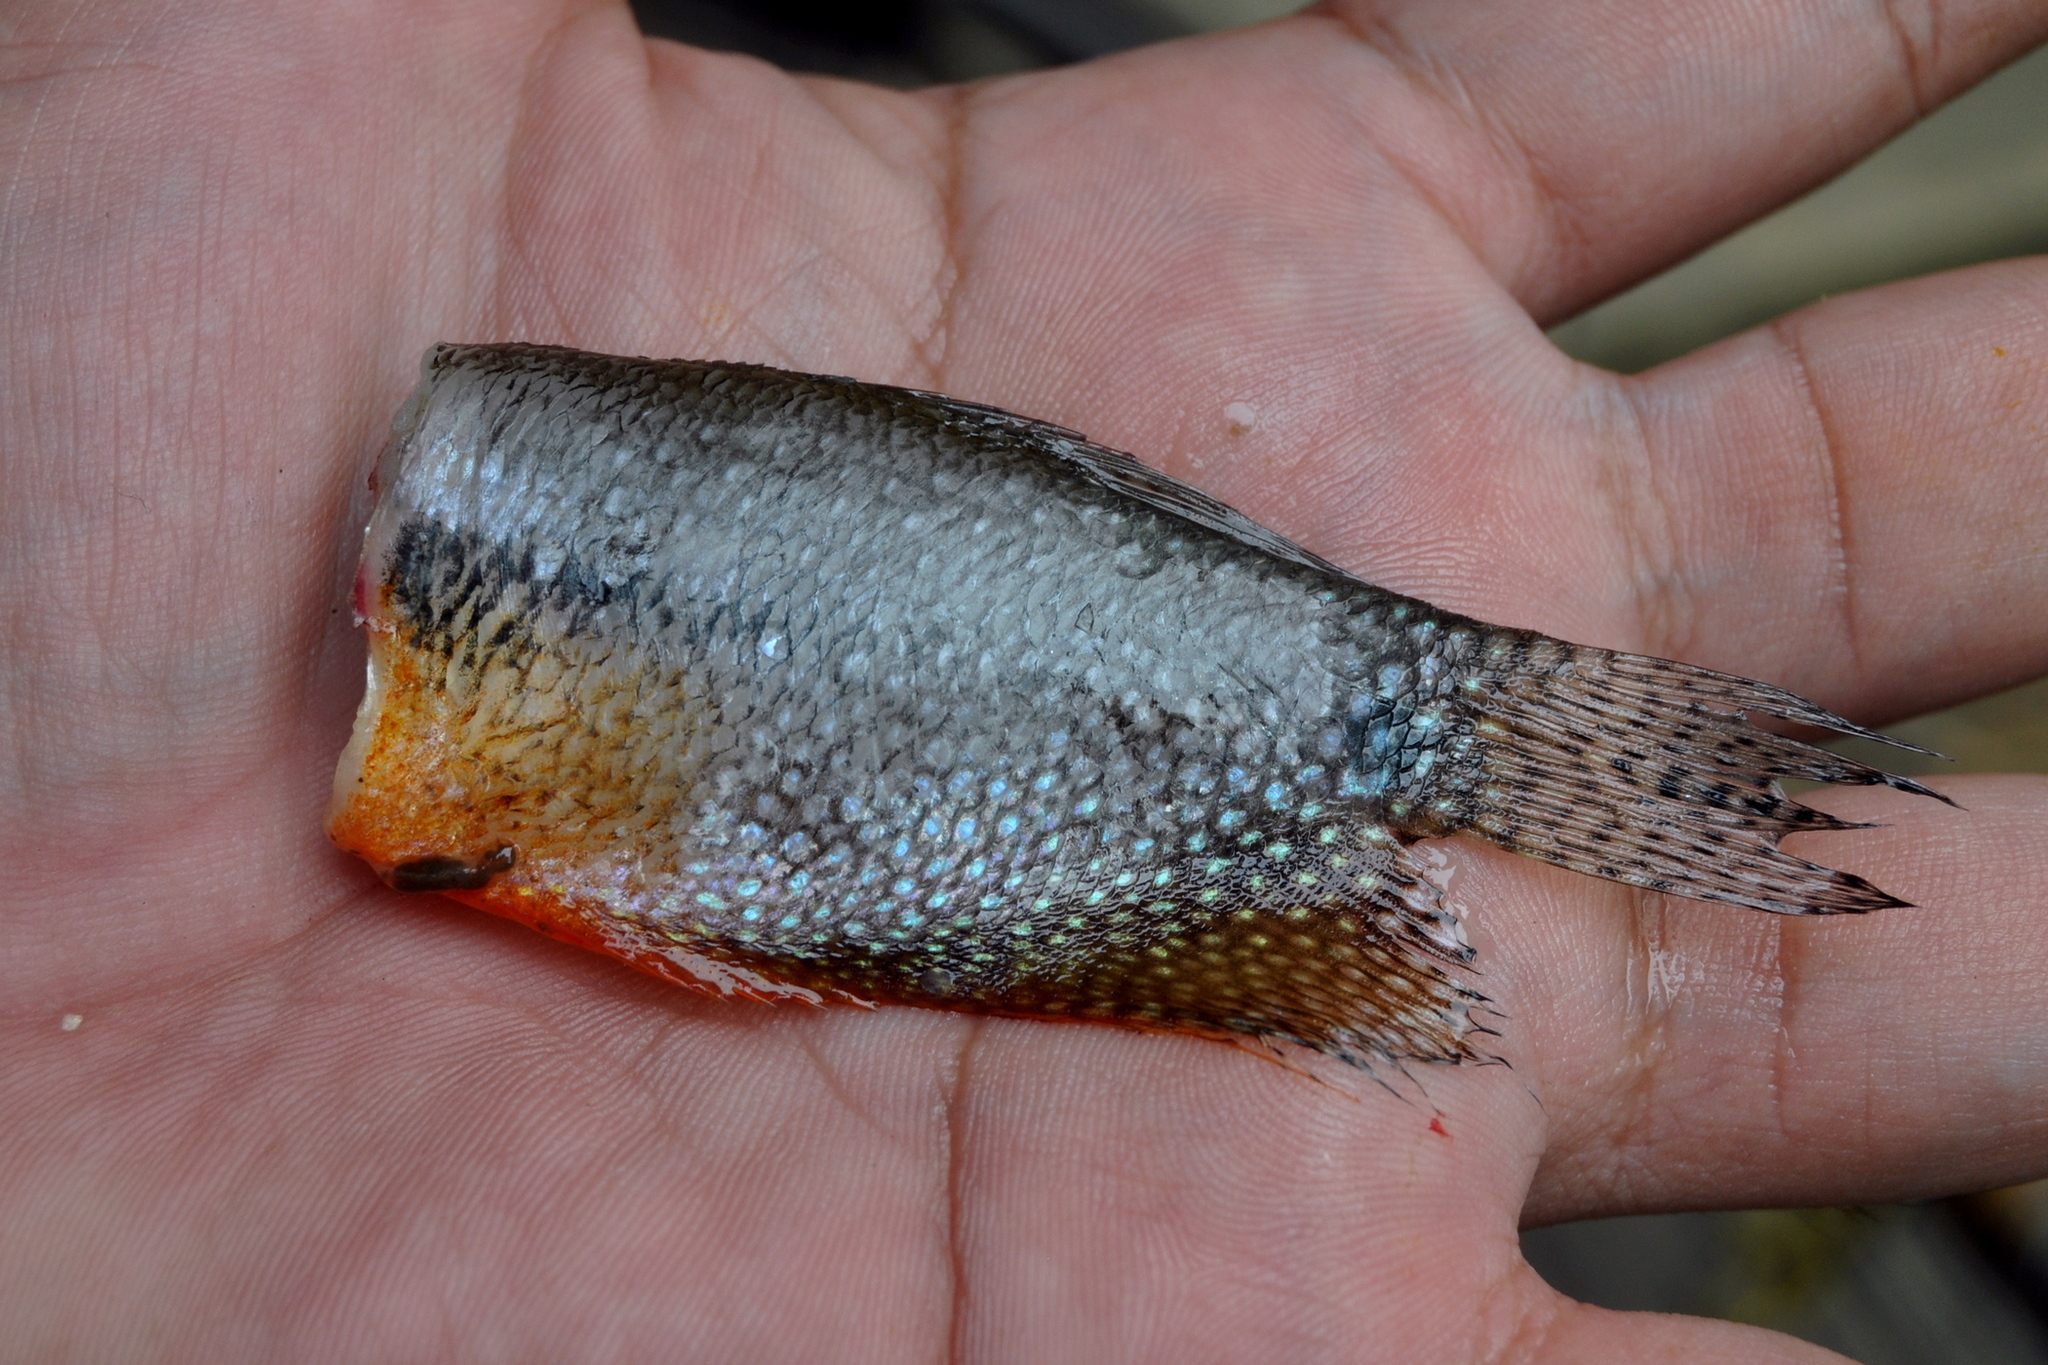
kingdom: Animalia
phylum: Chordata
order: Perciformes
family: Osphronemidae
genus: Trichopodus
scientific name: Trichopodus leerii
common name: Pearl gourami
